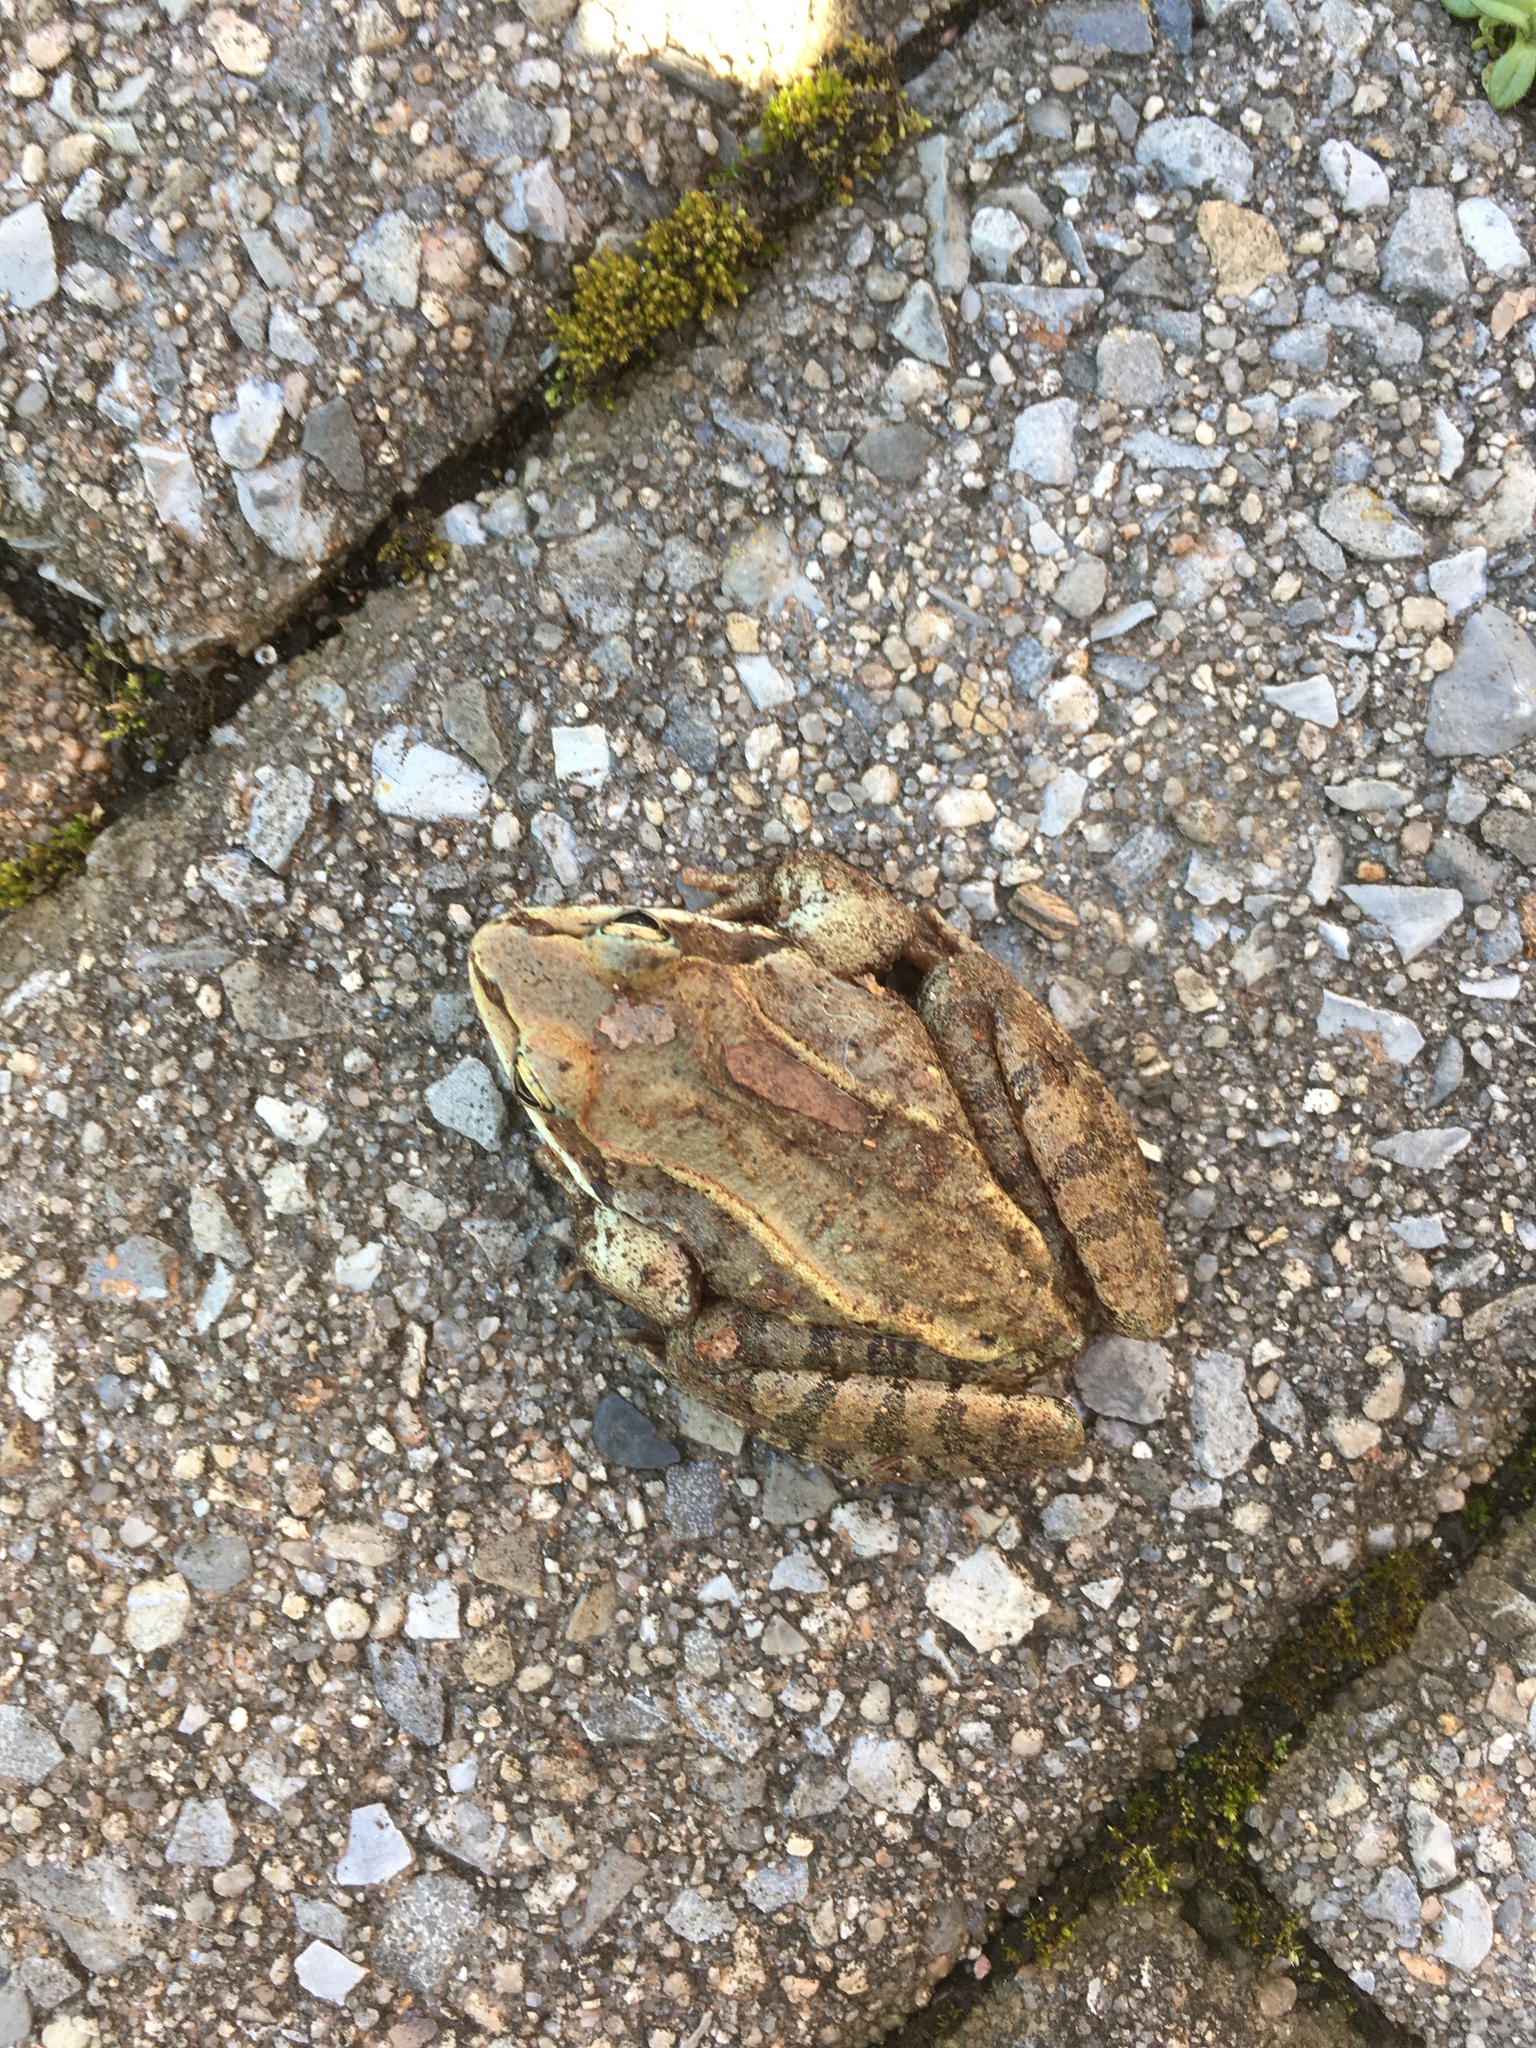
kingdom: Animalia
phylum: Chordata
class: Amphibia
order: Anura
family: Ranidae
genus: Lithobates
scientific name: Lithobates sylvaticus
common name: Wood frog
